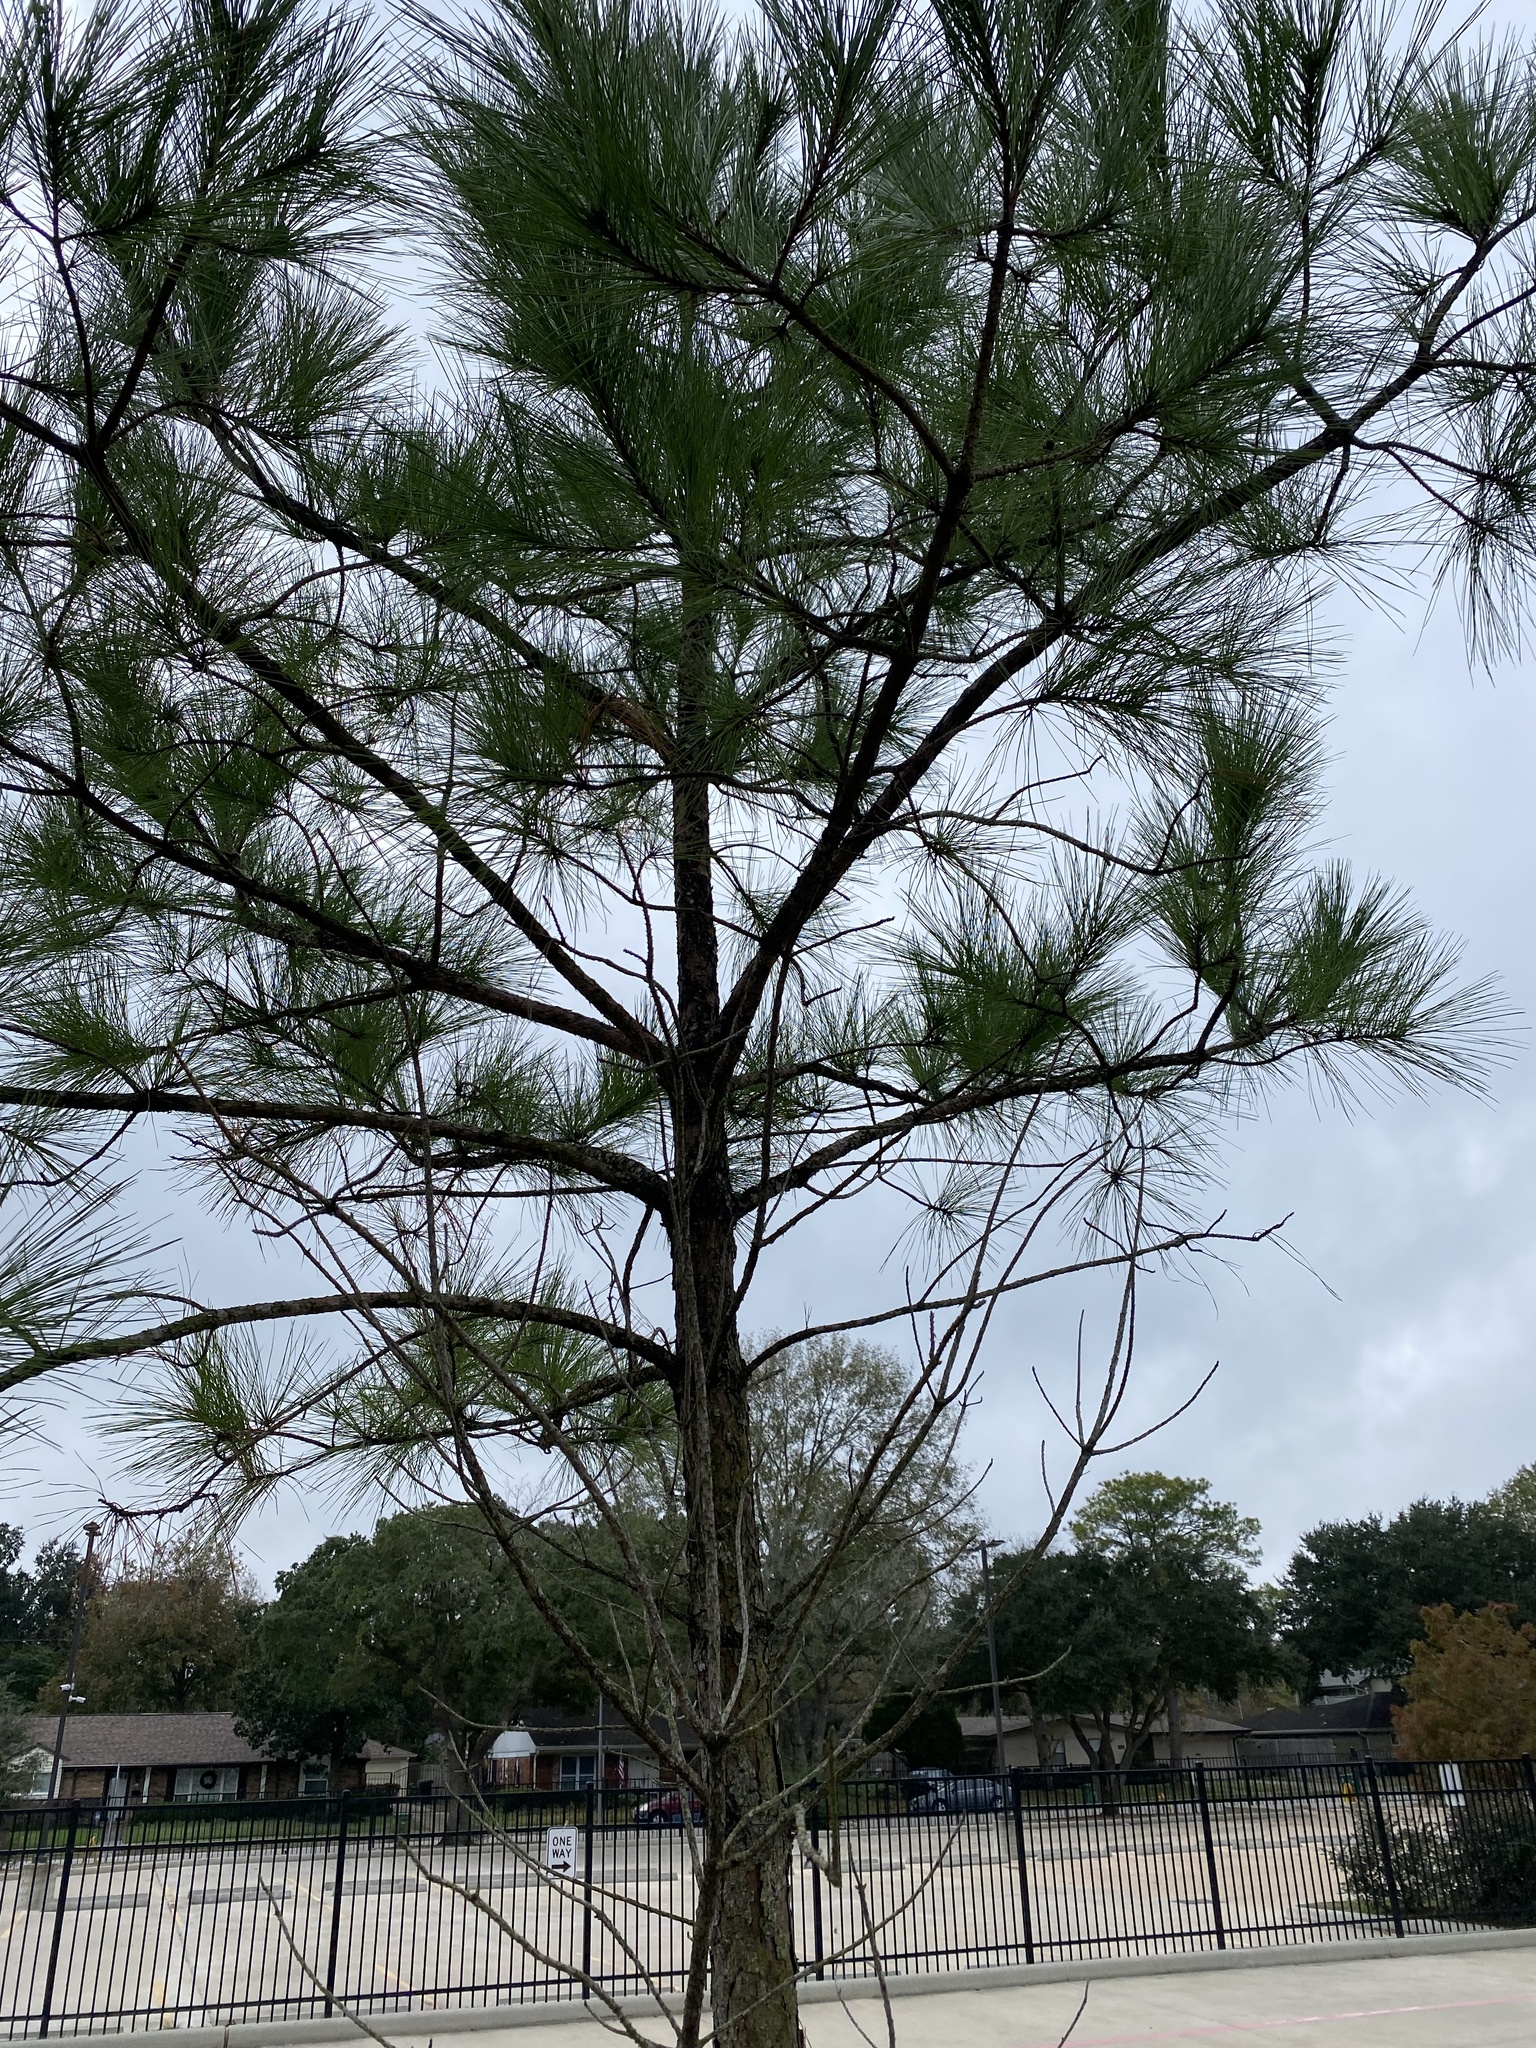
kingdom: Plantae
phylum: Tracheophyta
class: Pinopsida
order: Pinales
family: Pinaceae
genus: Pinus
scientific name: Pinus taeda
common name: Loblolly pine
